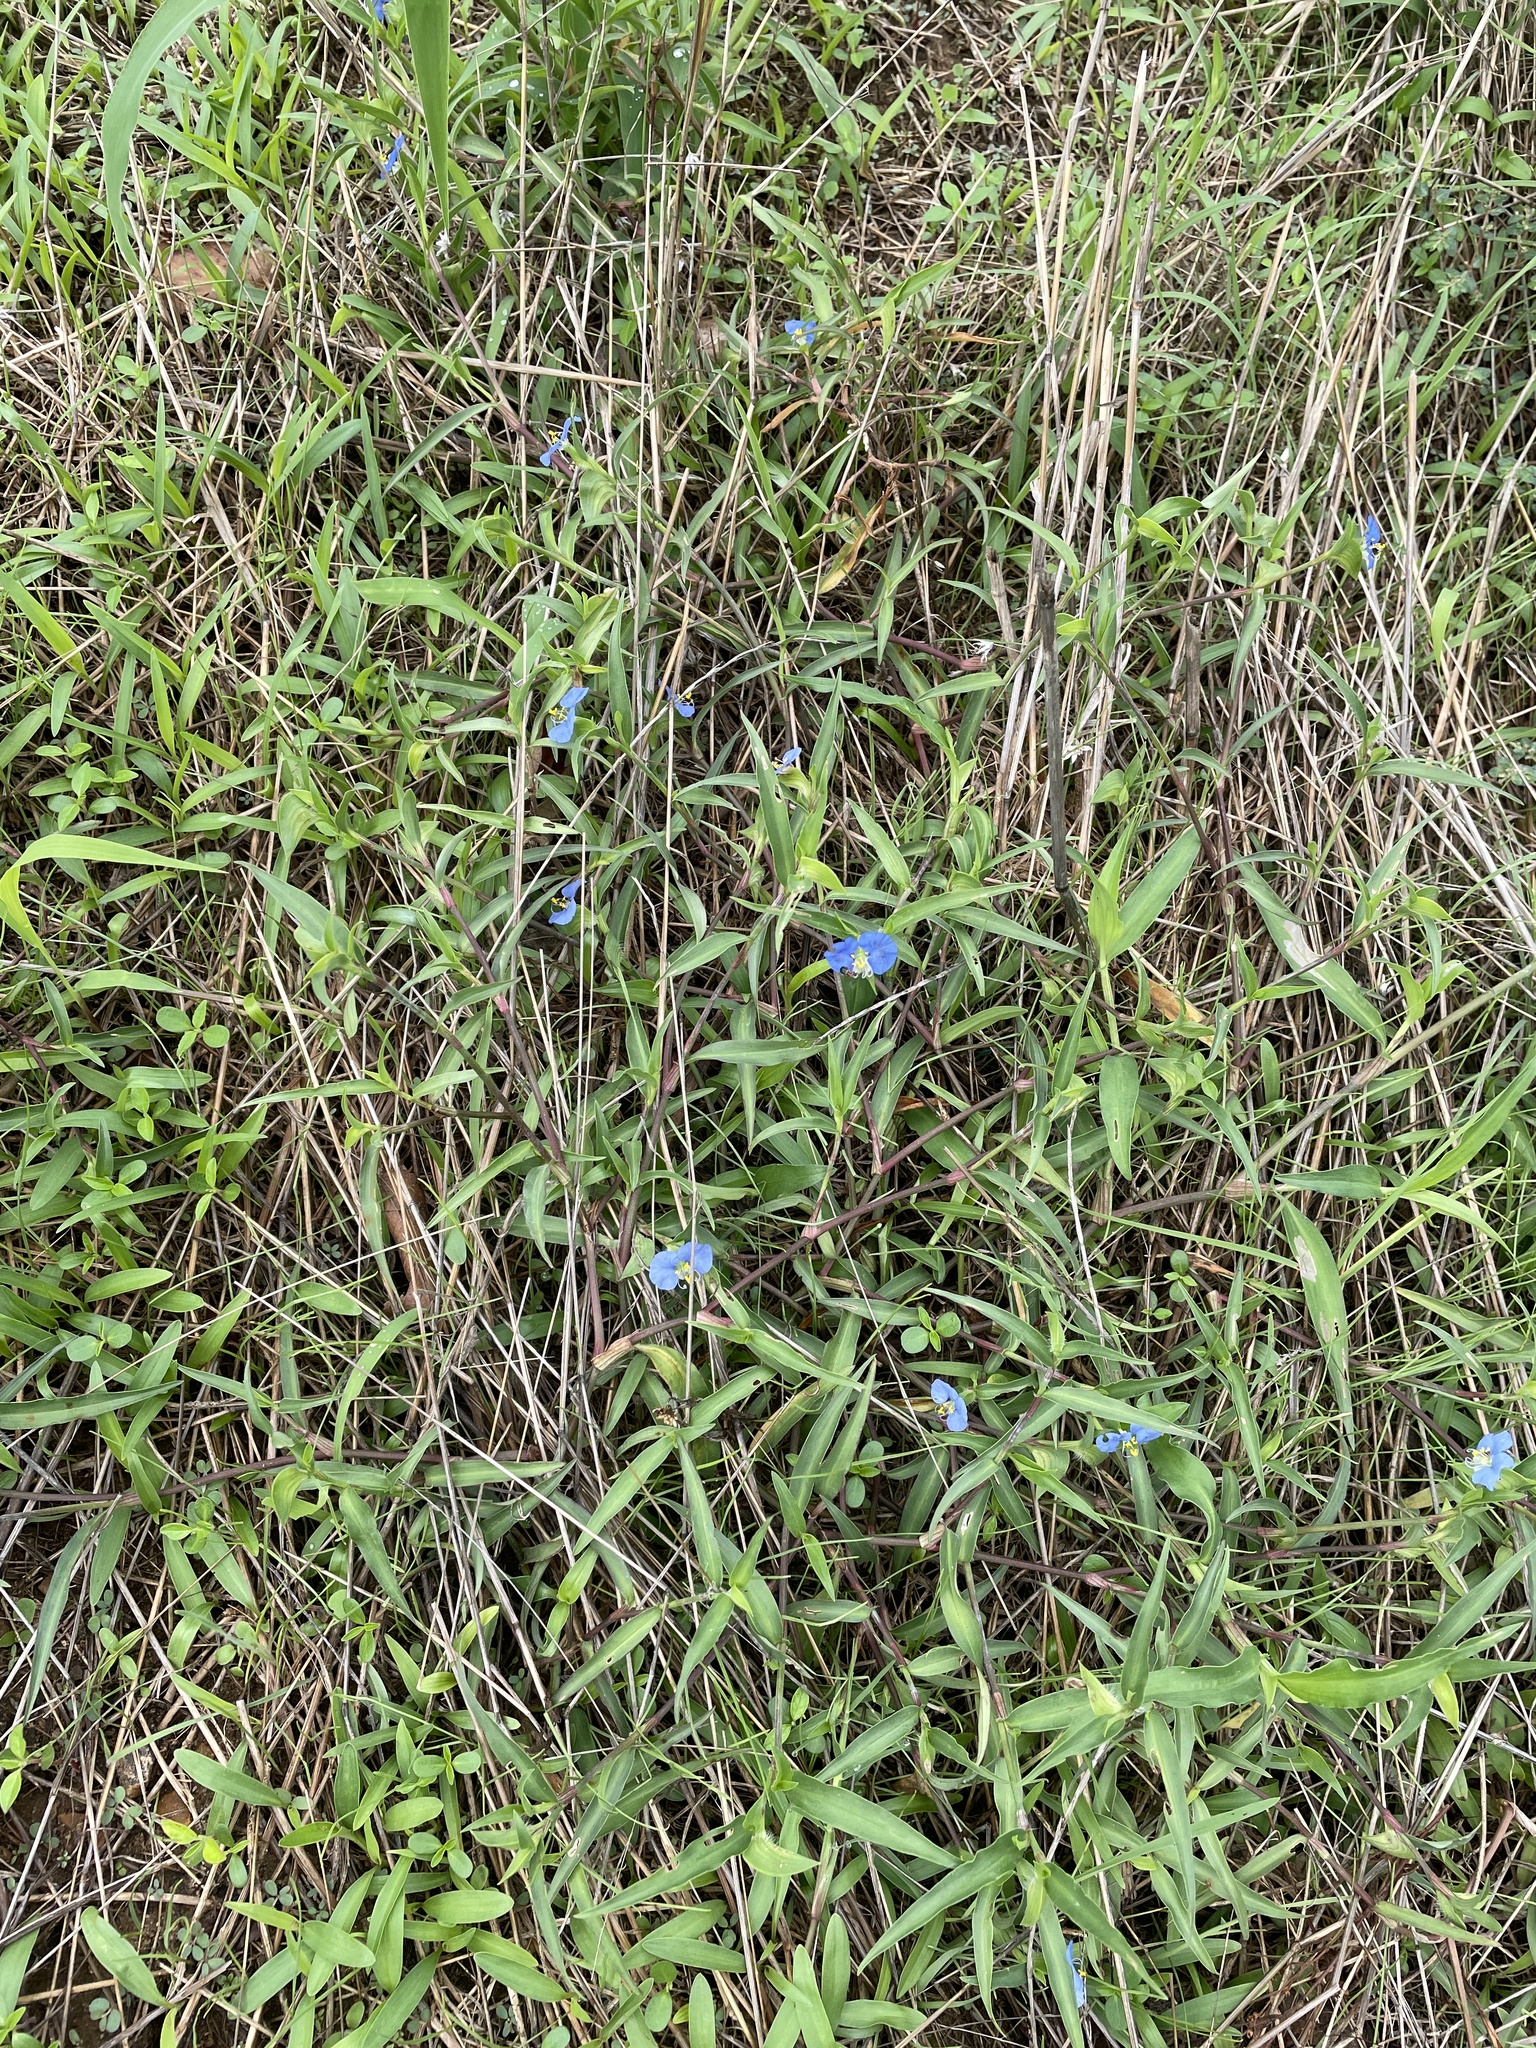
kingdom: Plantae
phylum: Tracheophyta
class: Liliopsida
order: Commelinales
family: Commelinaceae
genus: Commelina
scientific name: Commelina erecta
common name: Blousel blommetjie
